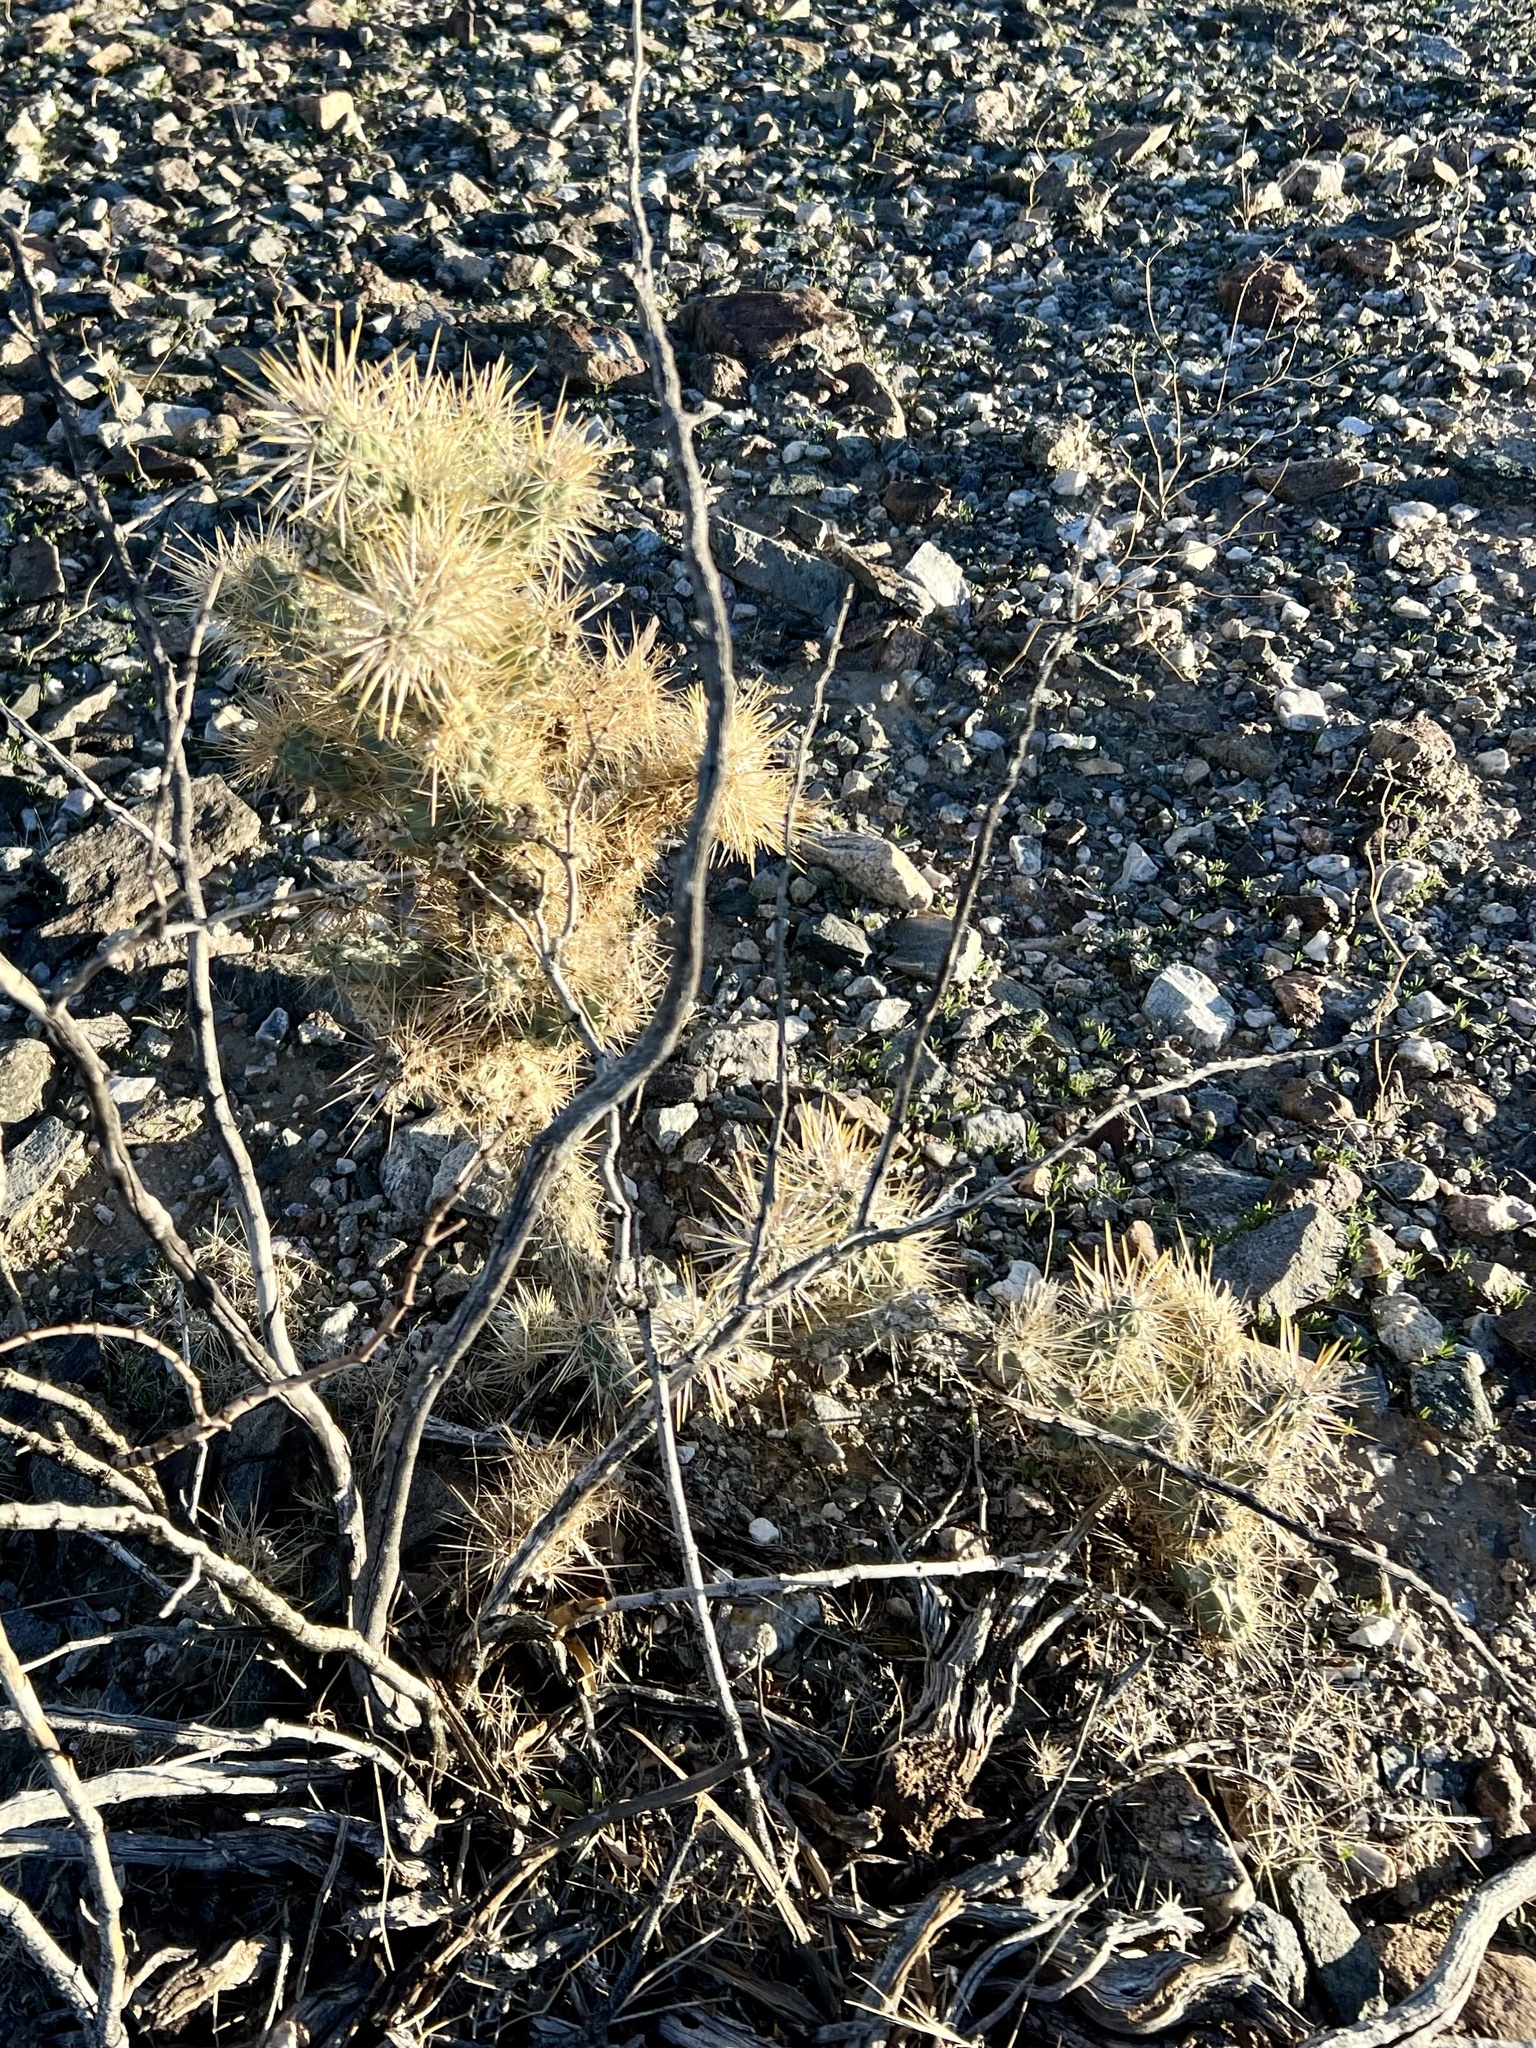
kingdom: Plantae
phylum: Tracheophyta
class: Magnoliopsida
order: Caryophyllales
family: Cactaceae
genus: Cylindropuntia
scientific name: Cylindropuntia echinocarpa
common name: Ground cholla
